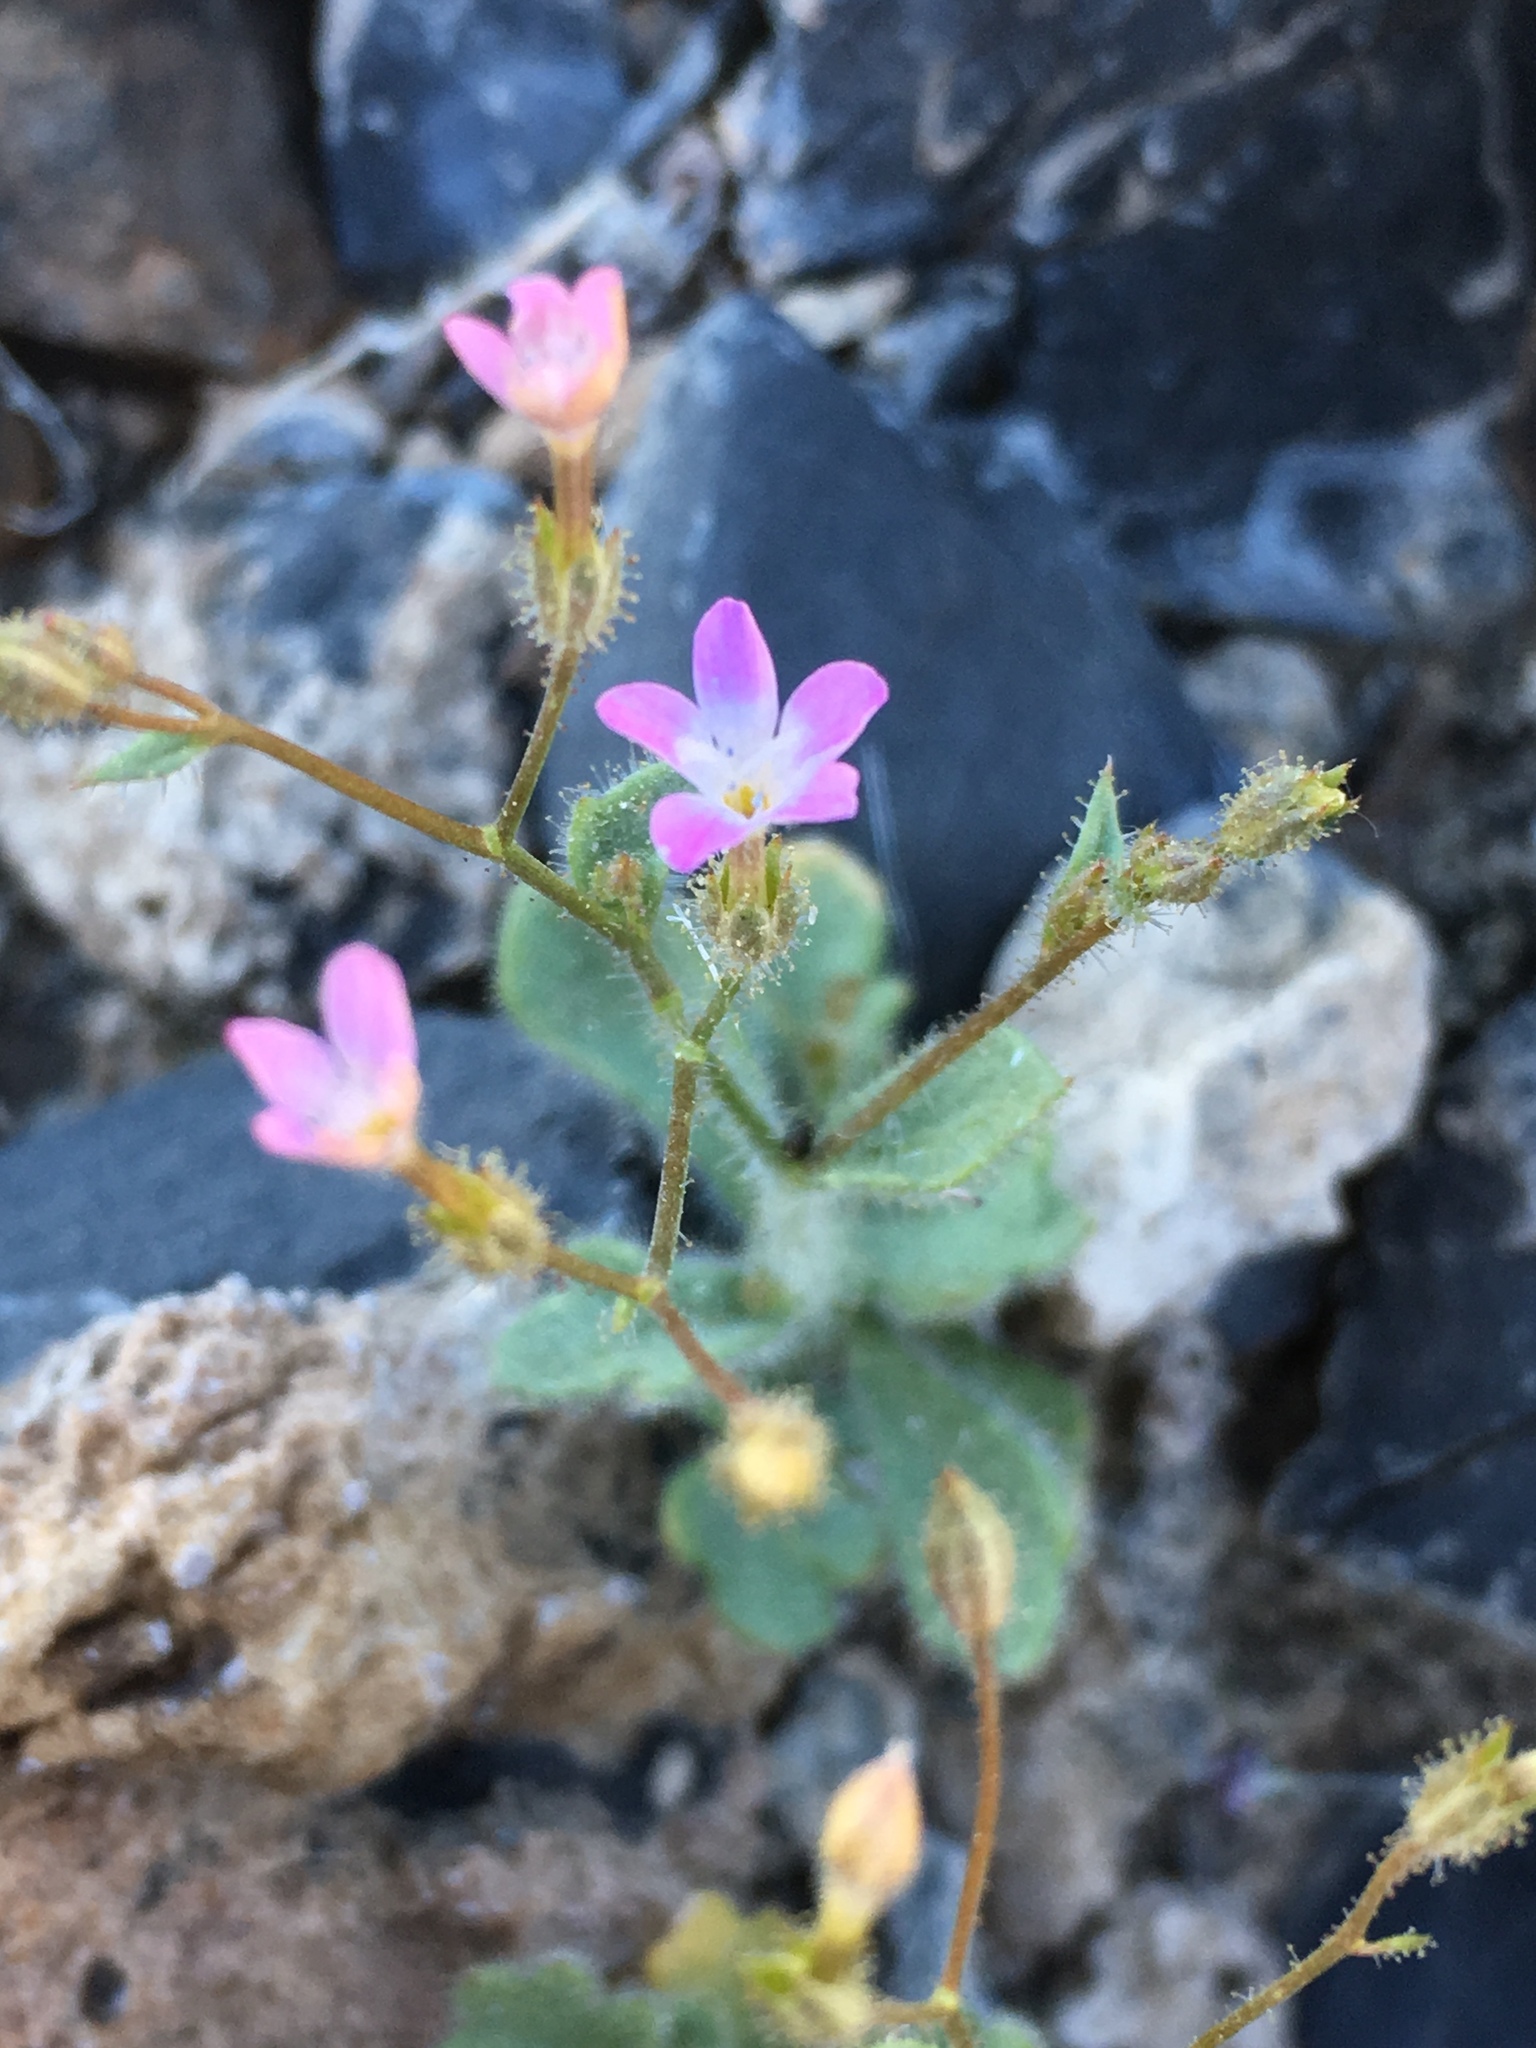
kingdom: Plantae
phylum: Tracheophyta
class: Magnoliopsida
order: Ericales
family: Polemoniaceae
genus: Gilia
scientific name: Gilia scopulorum
